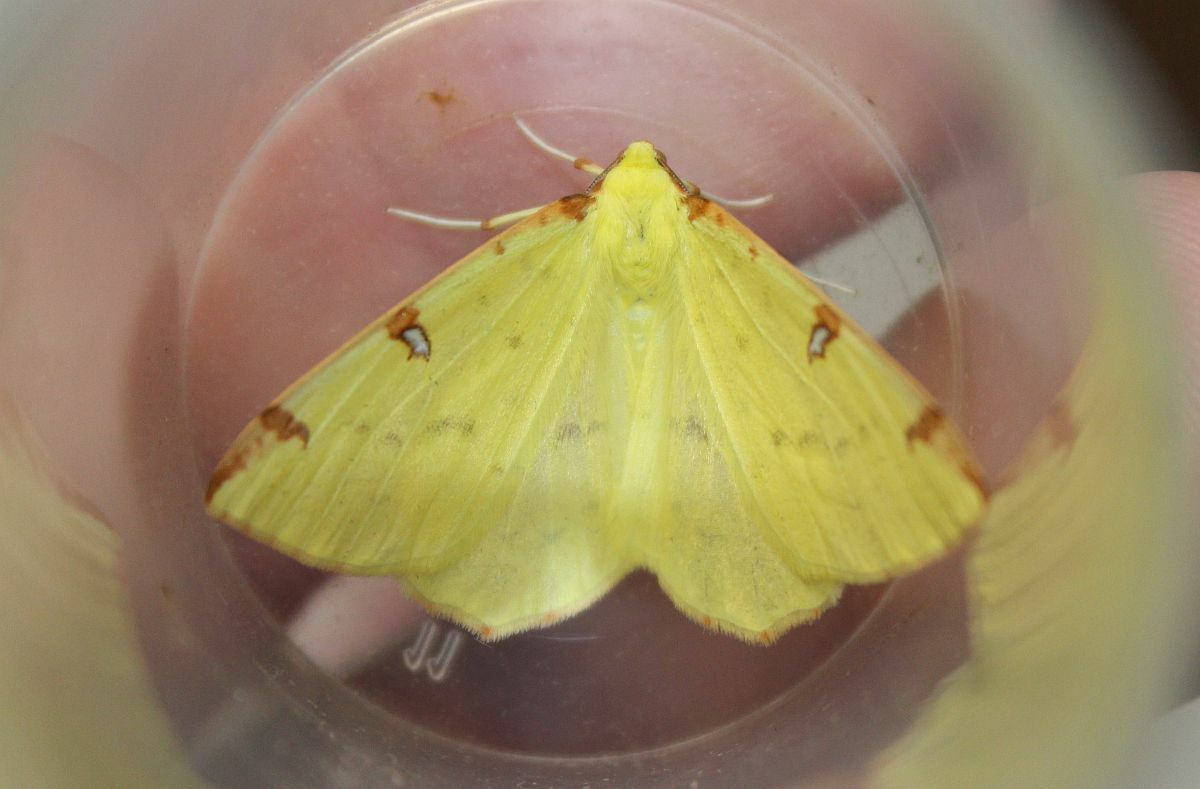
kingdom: Animalia
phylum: Arthropoda
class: Insecta
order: Lepidoptera
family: Geometridae
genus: Opisthograptis
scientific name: Opisthograptis luteolata
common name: Brimstone moth
